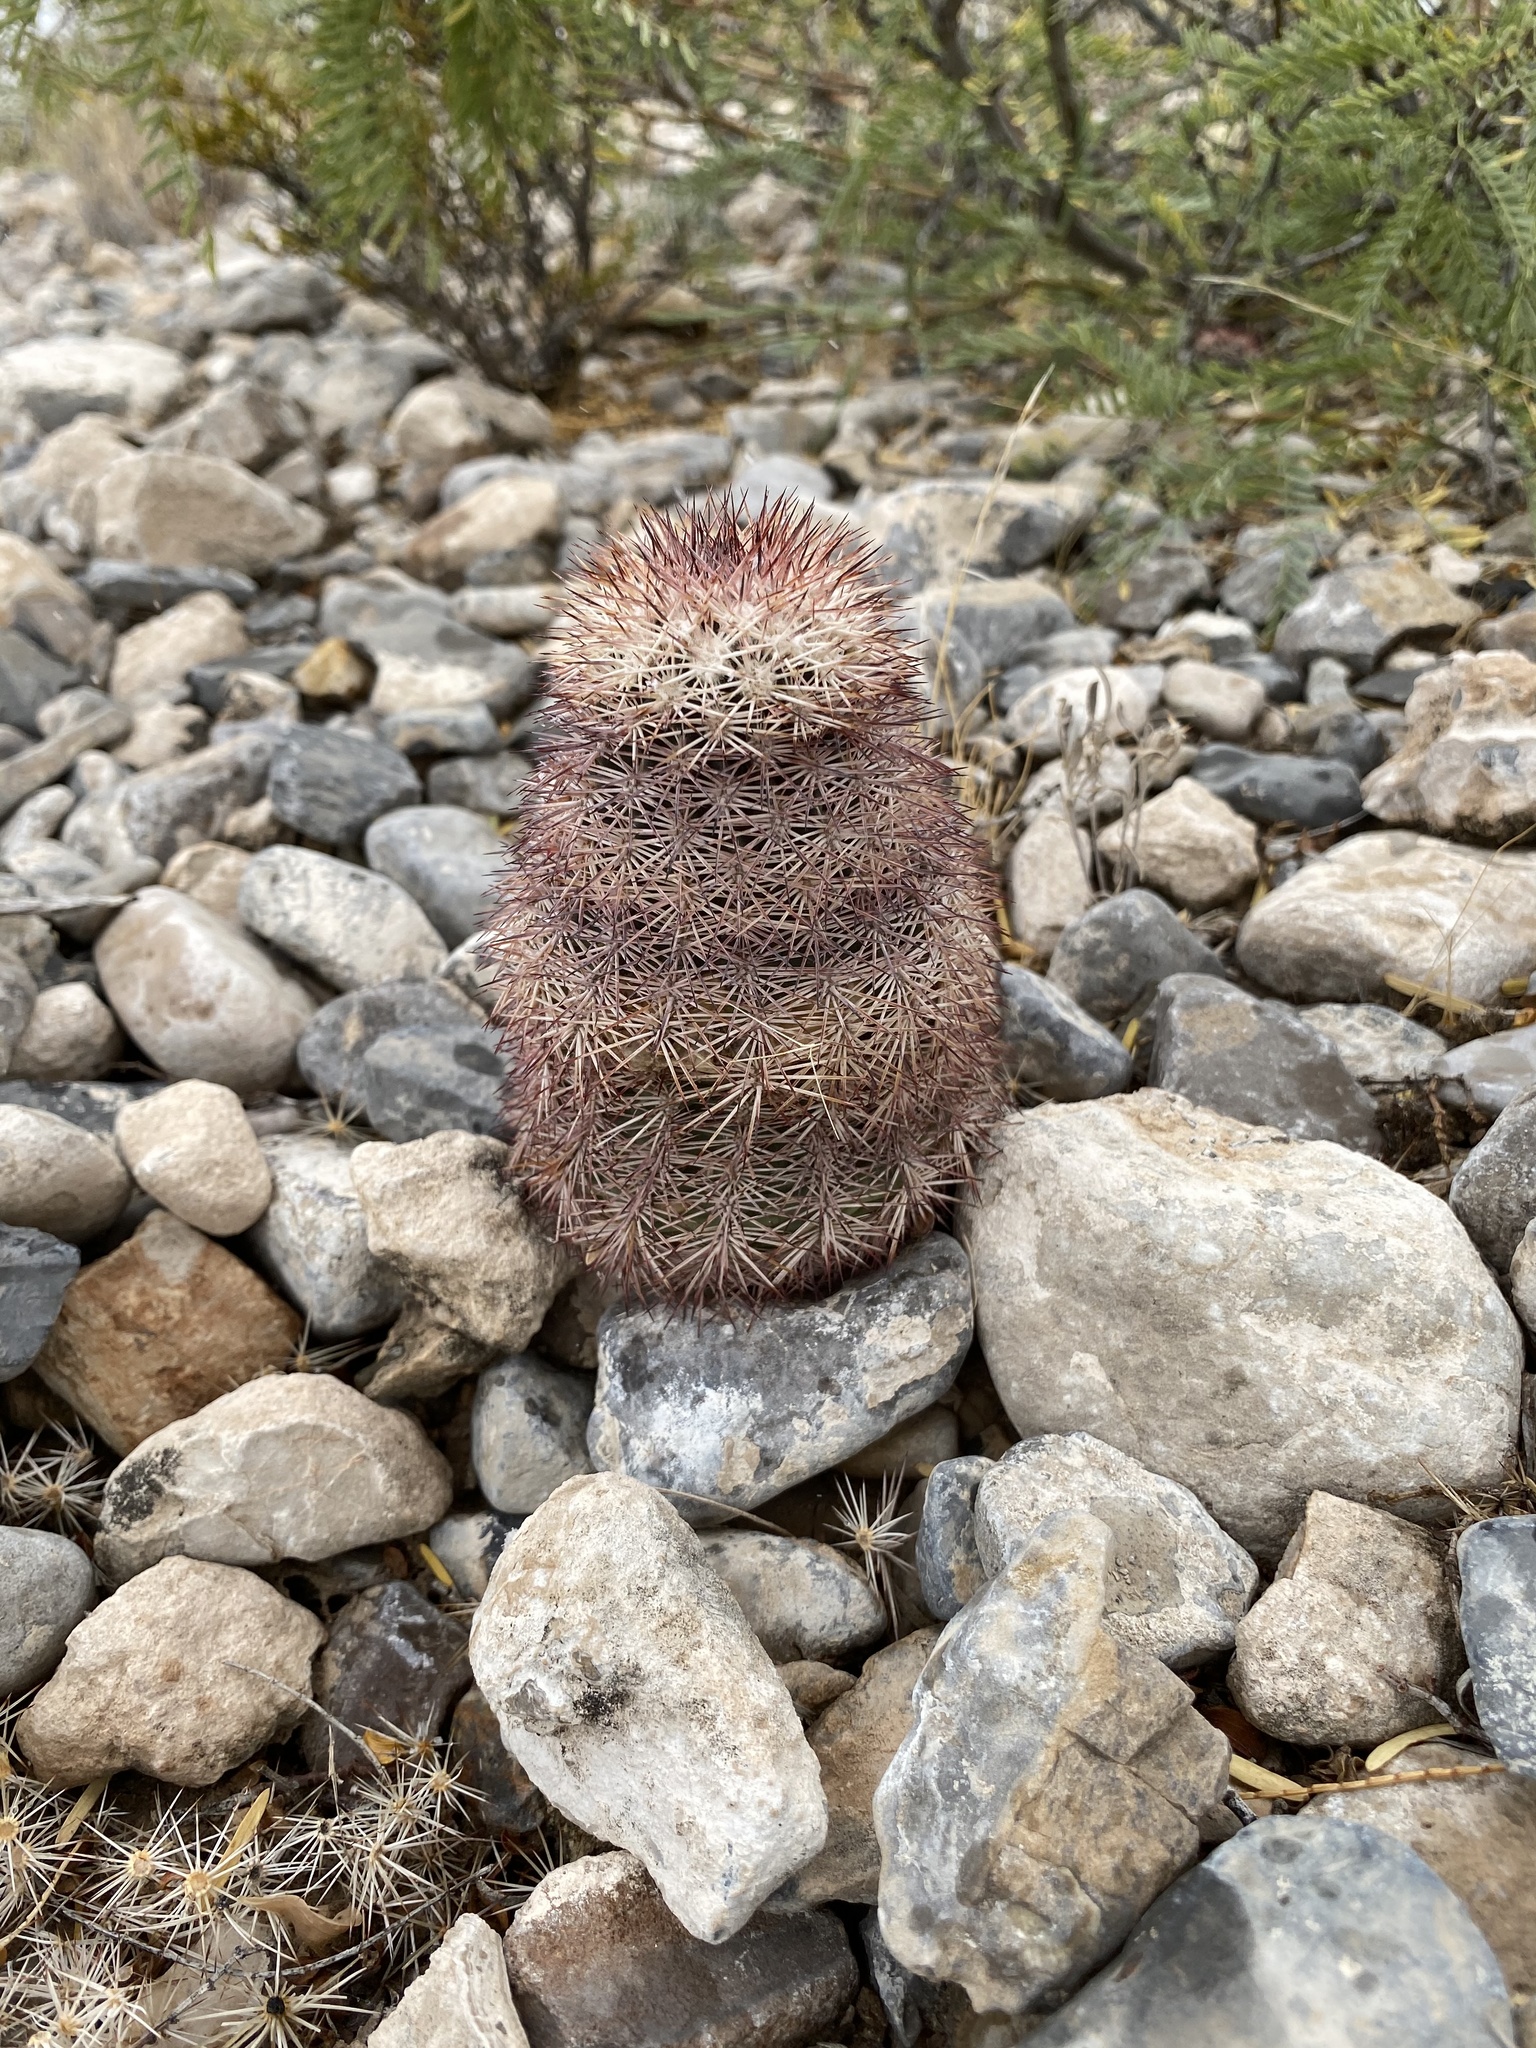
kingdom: Plantae
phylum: Tracheophyta
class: Magnoliopsida
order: Caryophyllales
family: Cactaceae
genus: Echinocereus
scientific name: Echinocereus dasyacanthus
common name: Spiny hedgehog cactus
